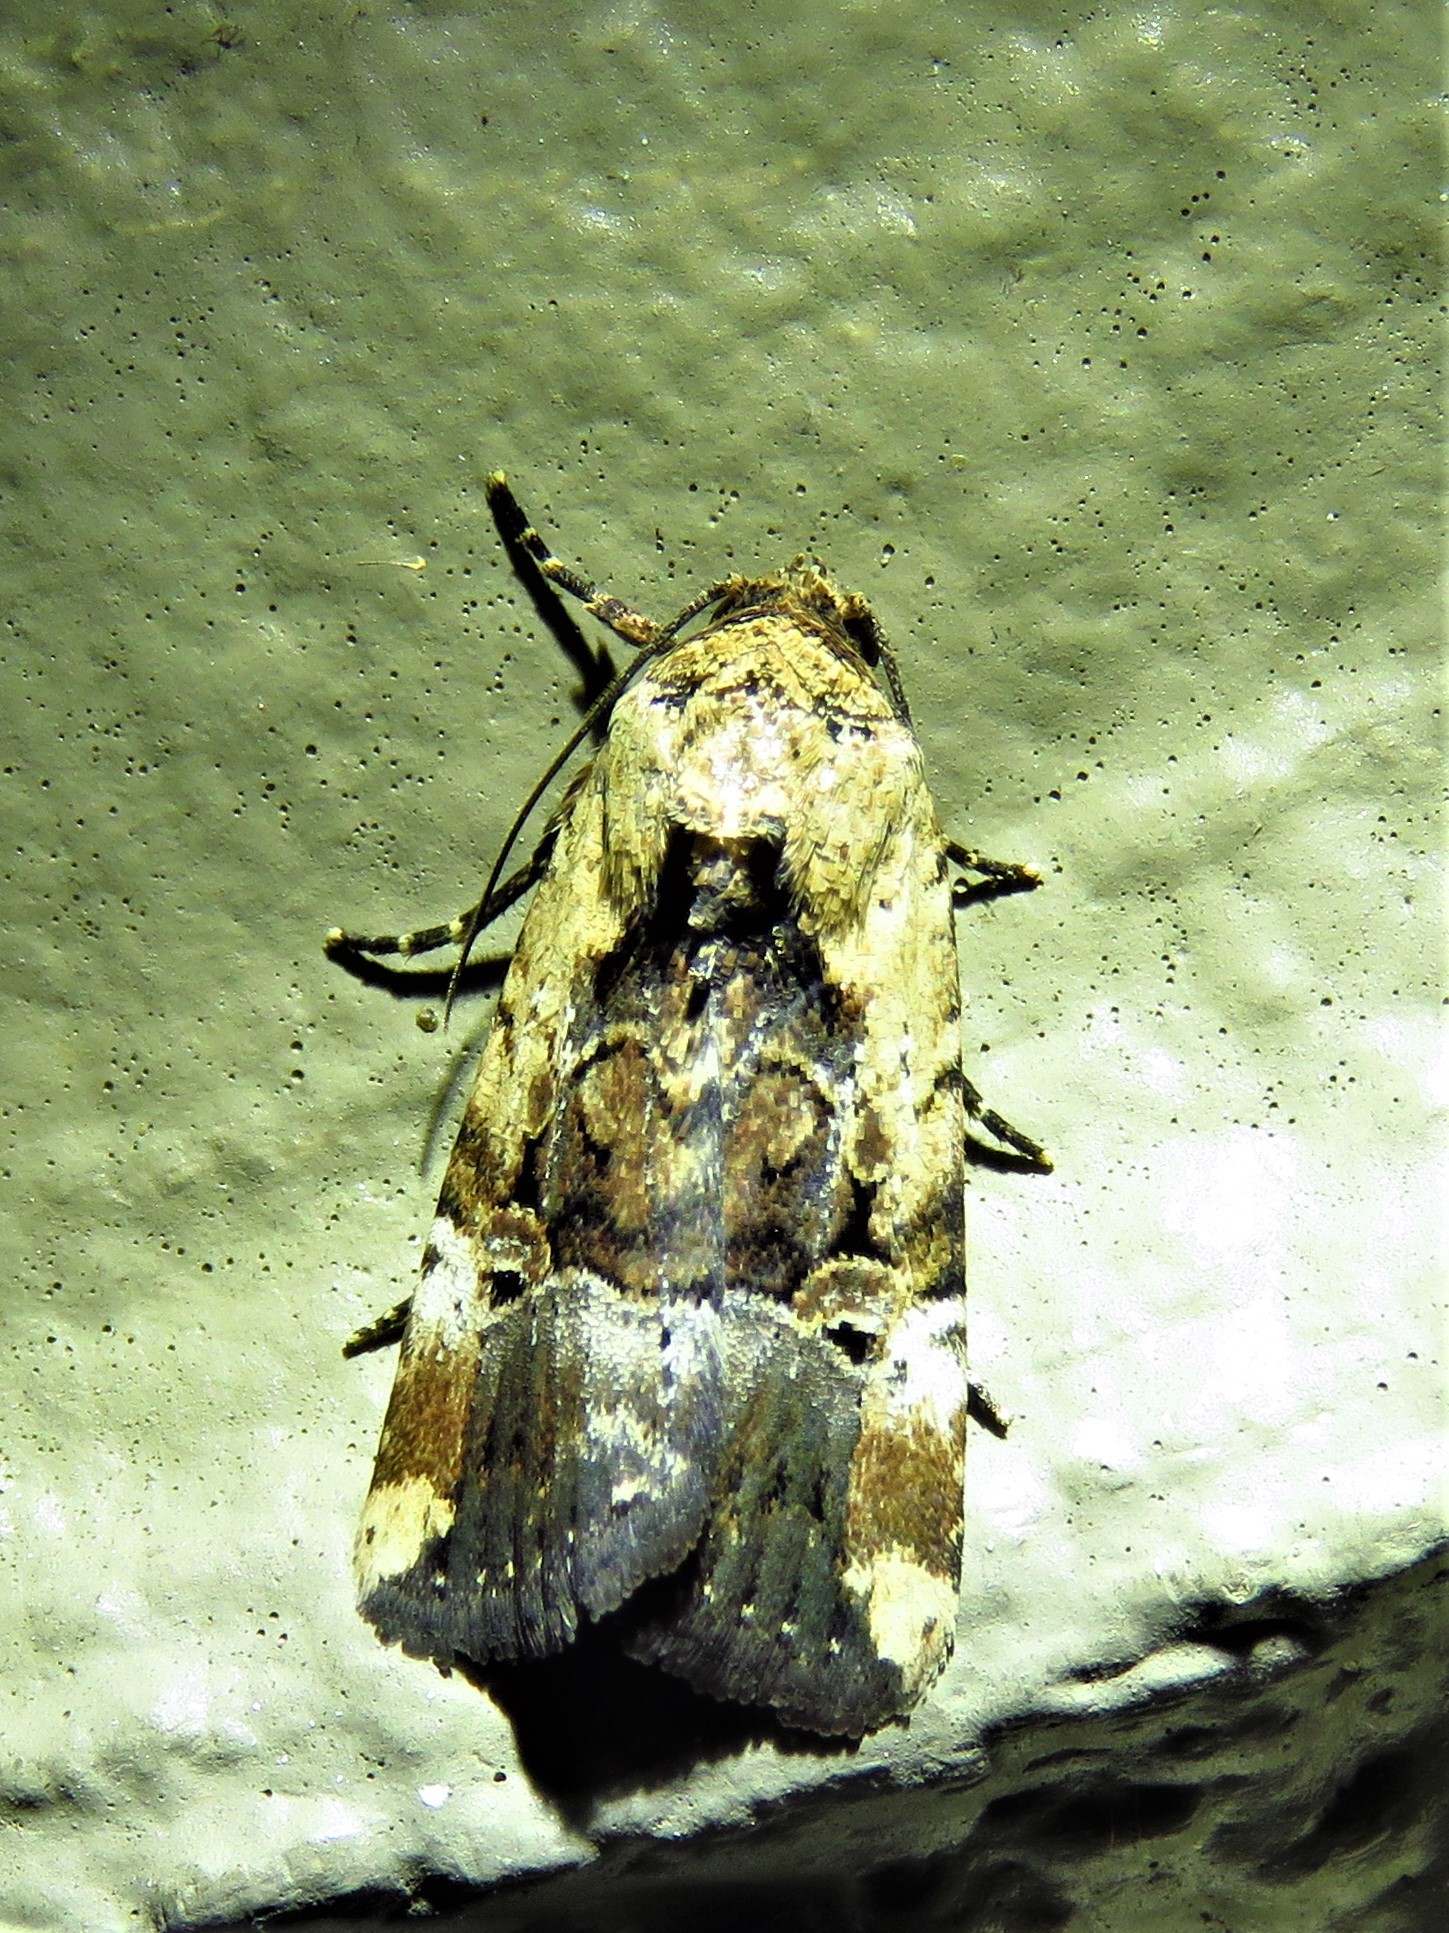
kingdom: Animalia
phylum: Arthropoda
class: Insecta
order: Lepidoptera
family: Noctuidae
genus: Elaphria
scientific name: Elaphria chalcedonia
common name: Chalcedony midget
